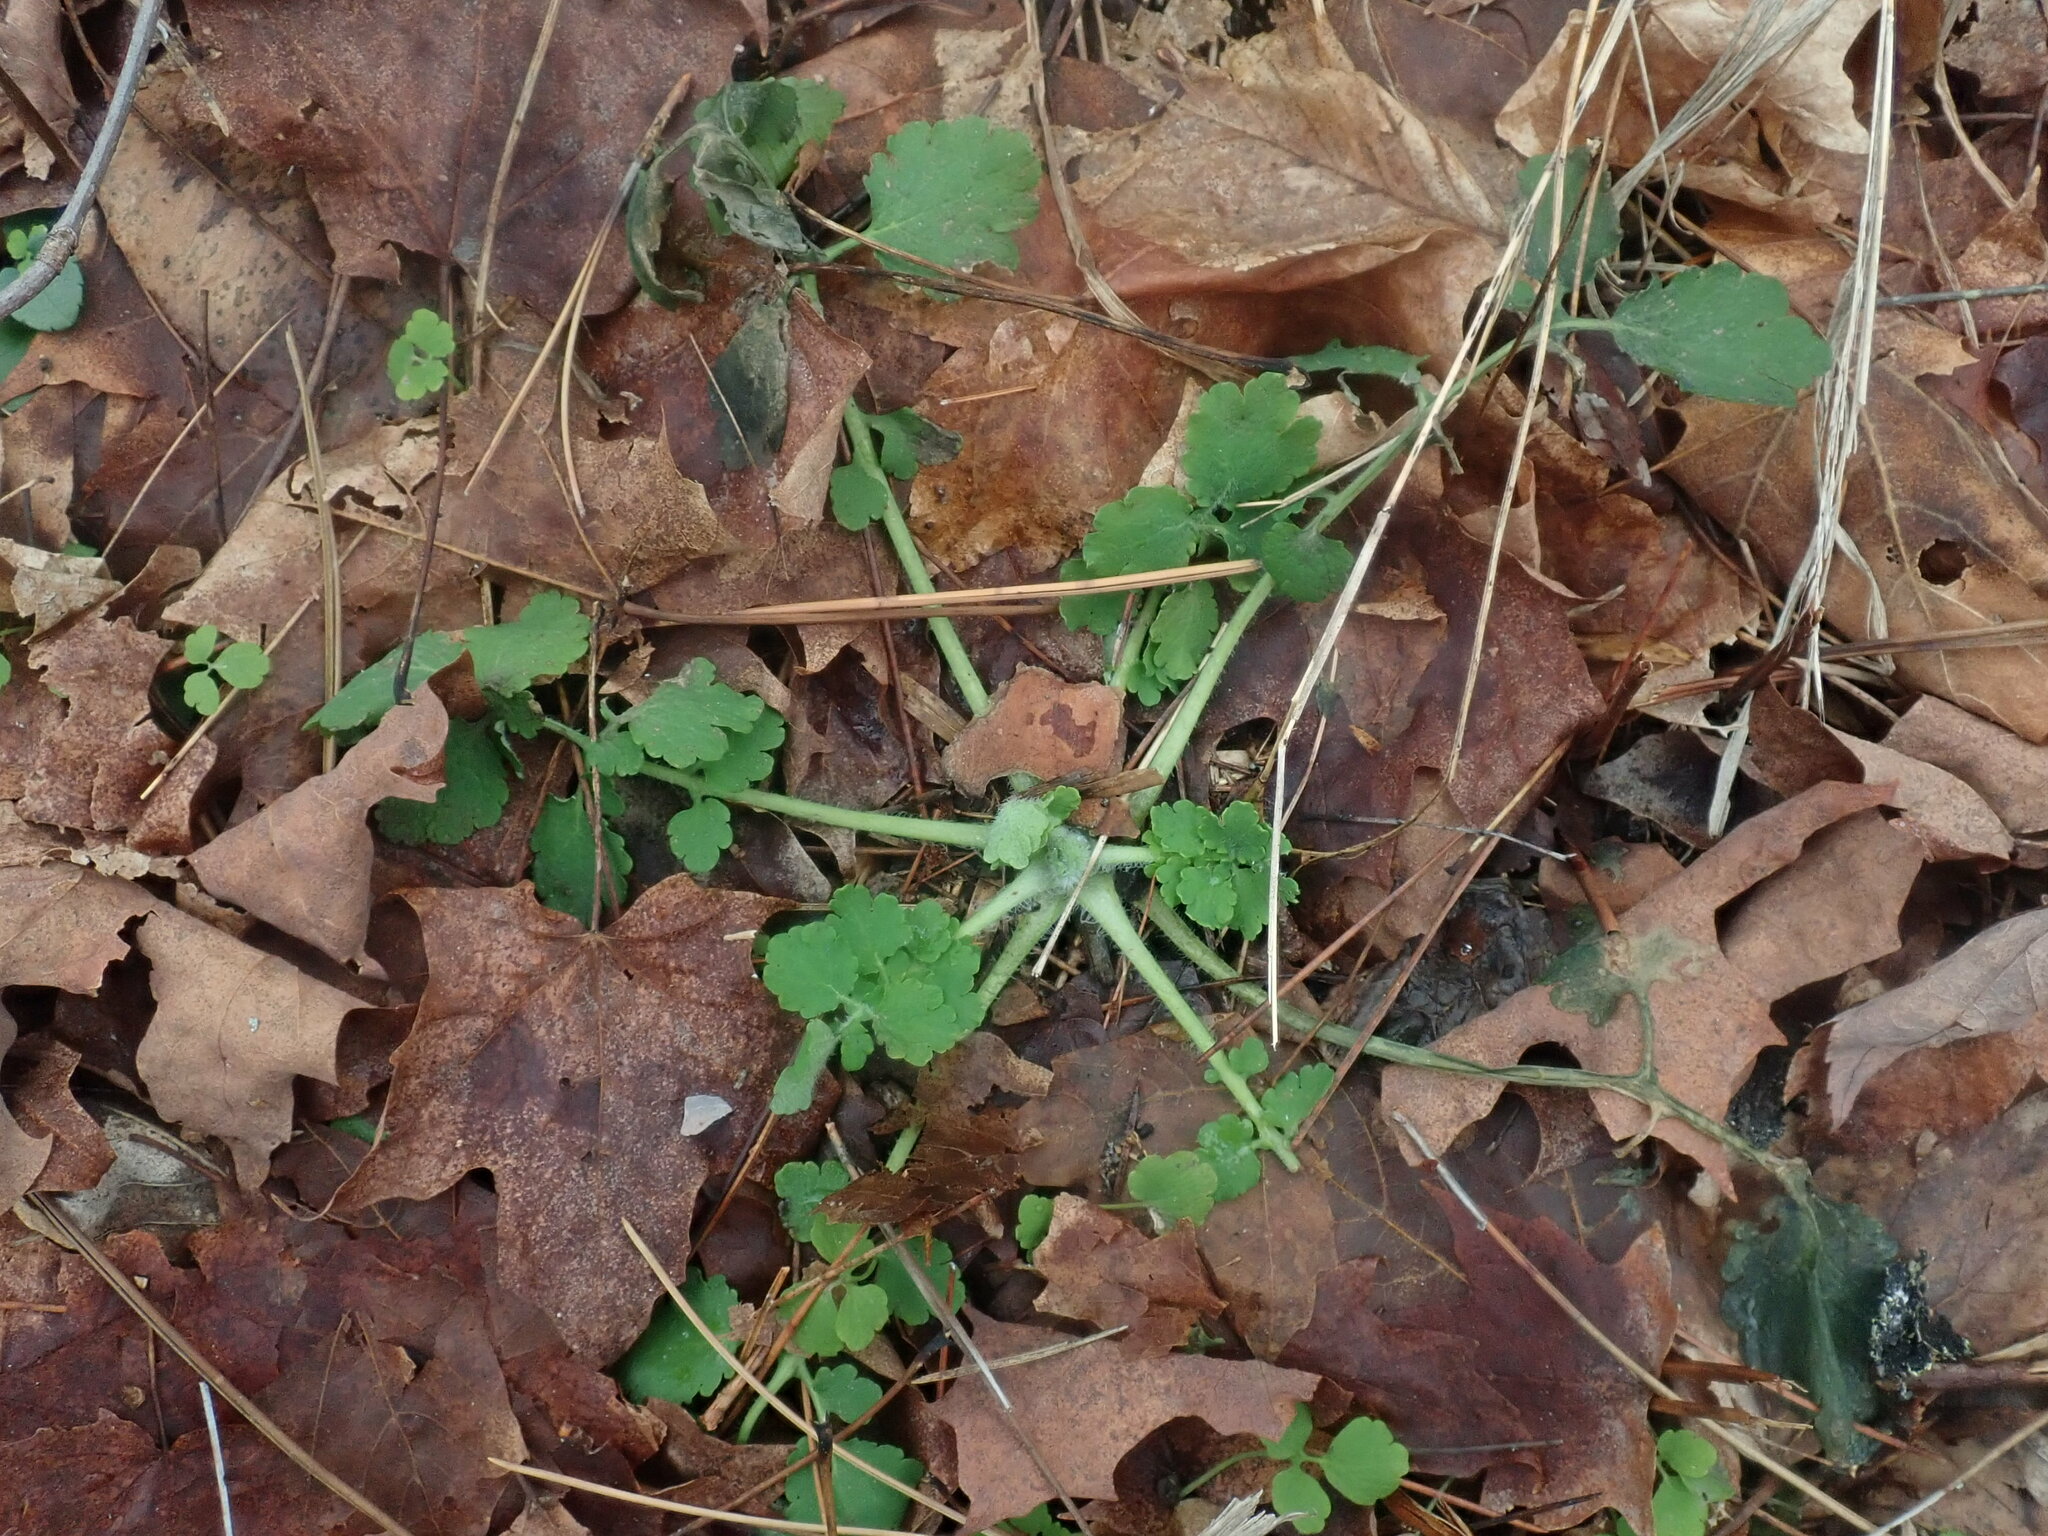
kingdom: Plantae
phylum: Tracheophyta
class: Magnoliopsida
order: Ranunculales
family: Papaveraceae
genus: Chelidonium
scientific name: Chelidonium majus
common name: Greater celandine
